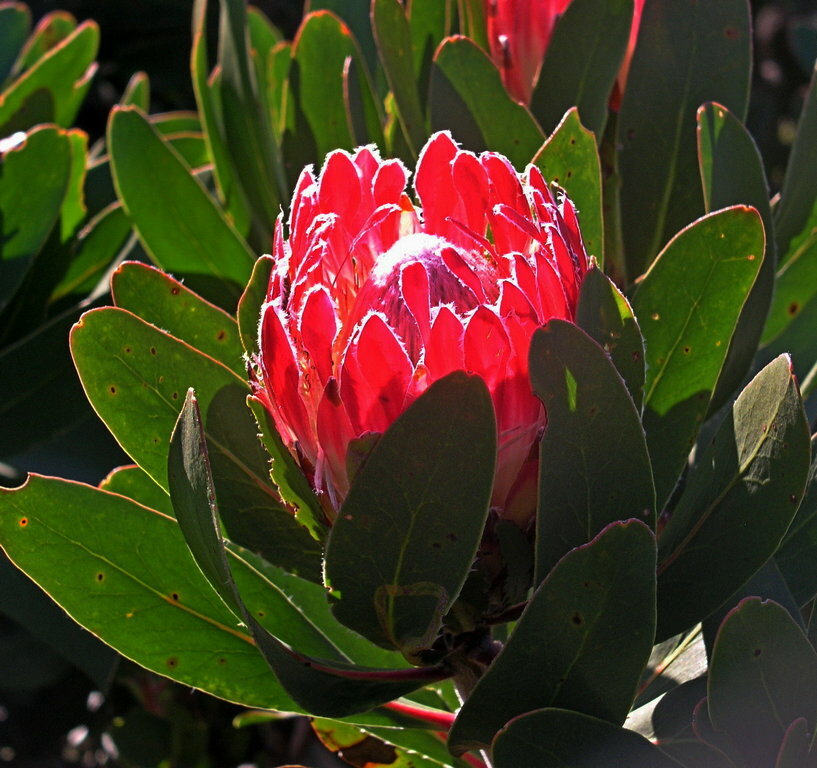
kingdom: Plantae
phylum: Tracheophyta
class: Magnoliopsida
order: Proteales
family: Proteaceae
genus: Protea
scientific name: Protea obtusifolia
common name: Bredasdorp sugarbush
